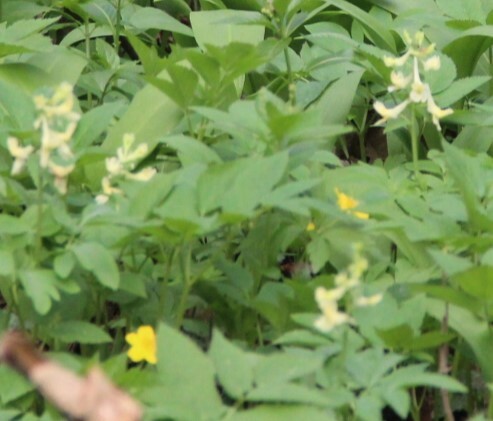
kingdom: Plantae
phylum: Tracheophyta
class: Magnoliopsida
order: Ranunculales
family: Papaveraceae
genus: Corydalis
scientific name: Corydalis cava
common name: Hollowroot
